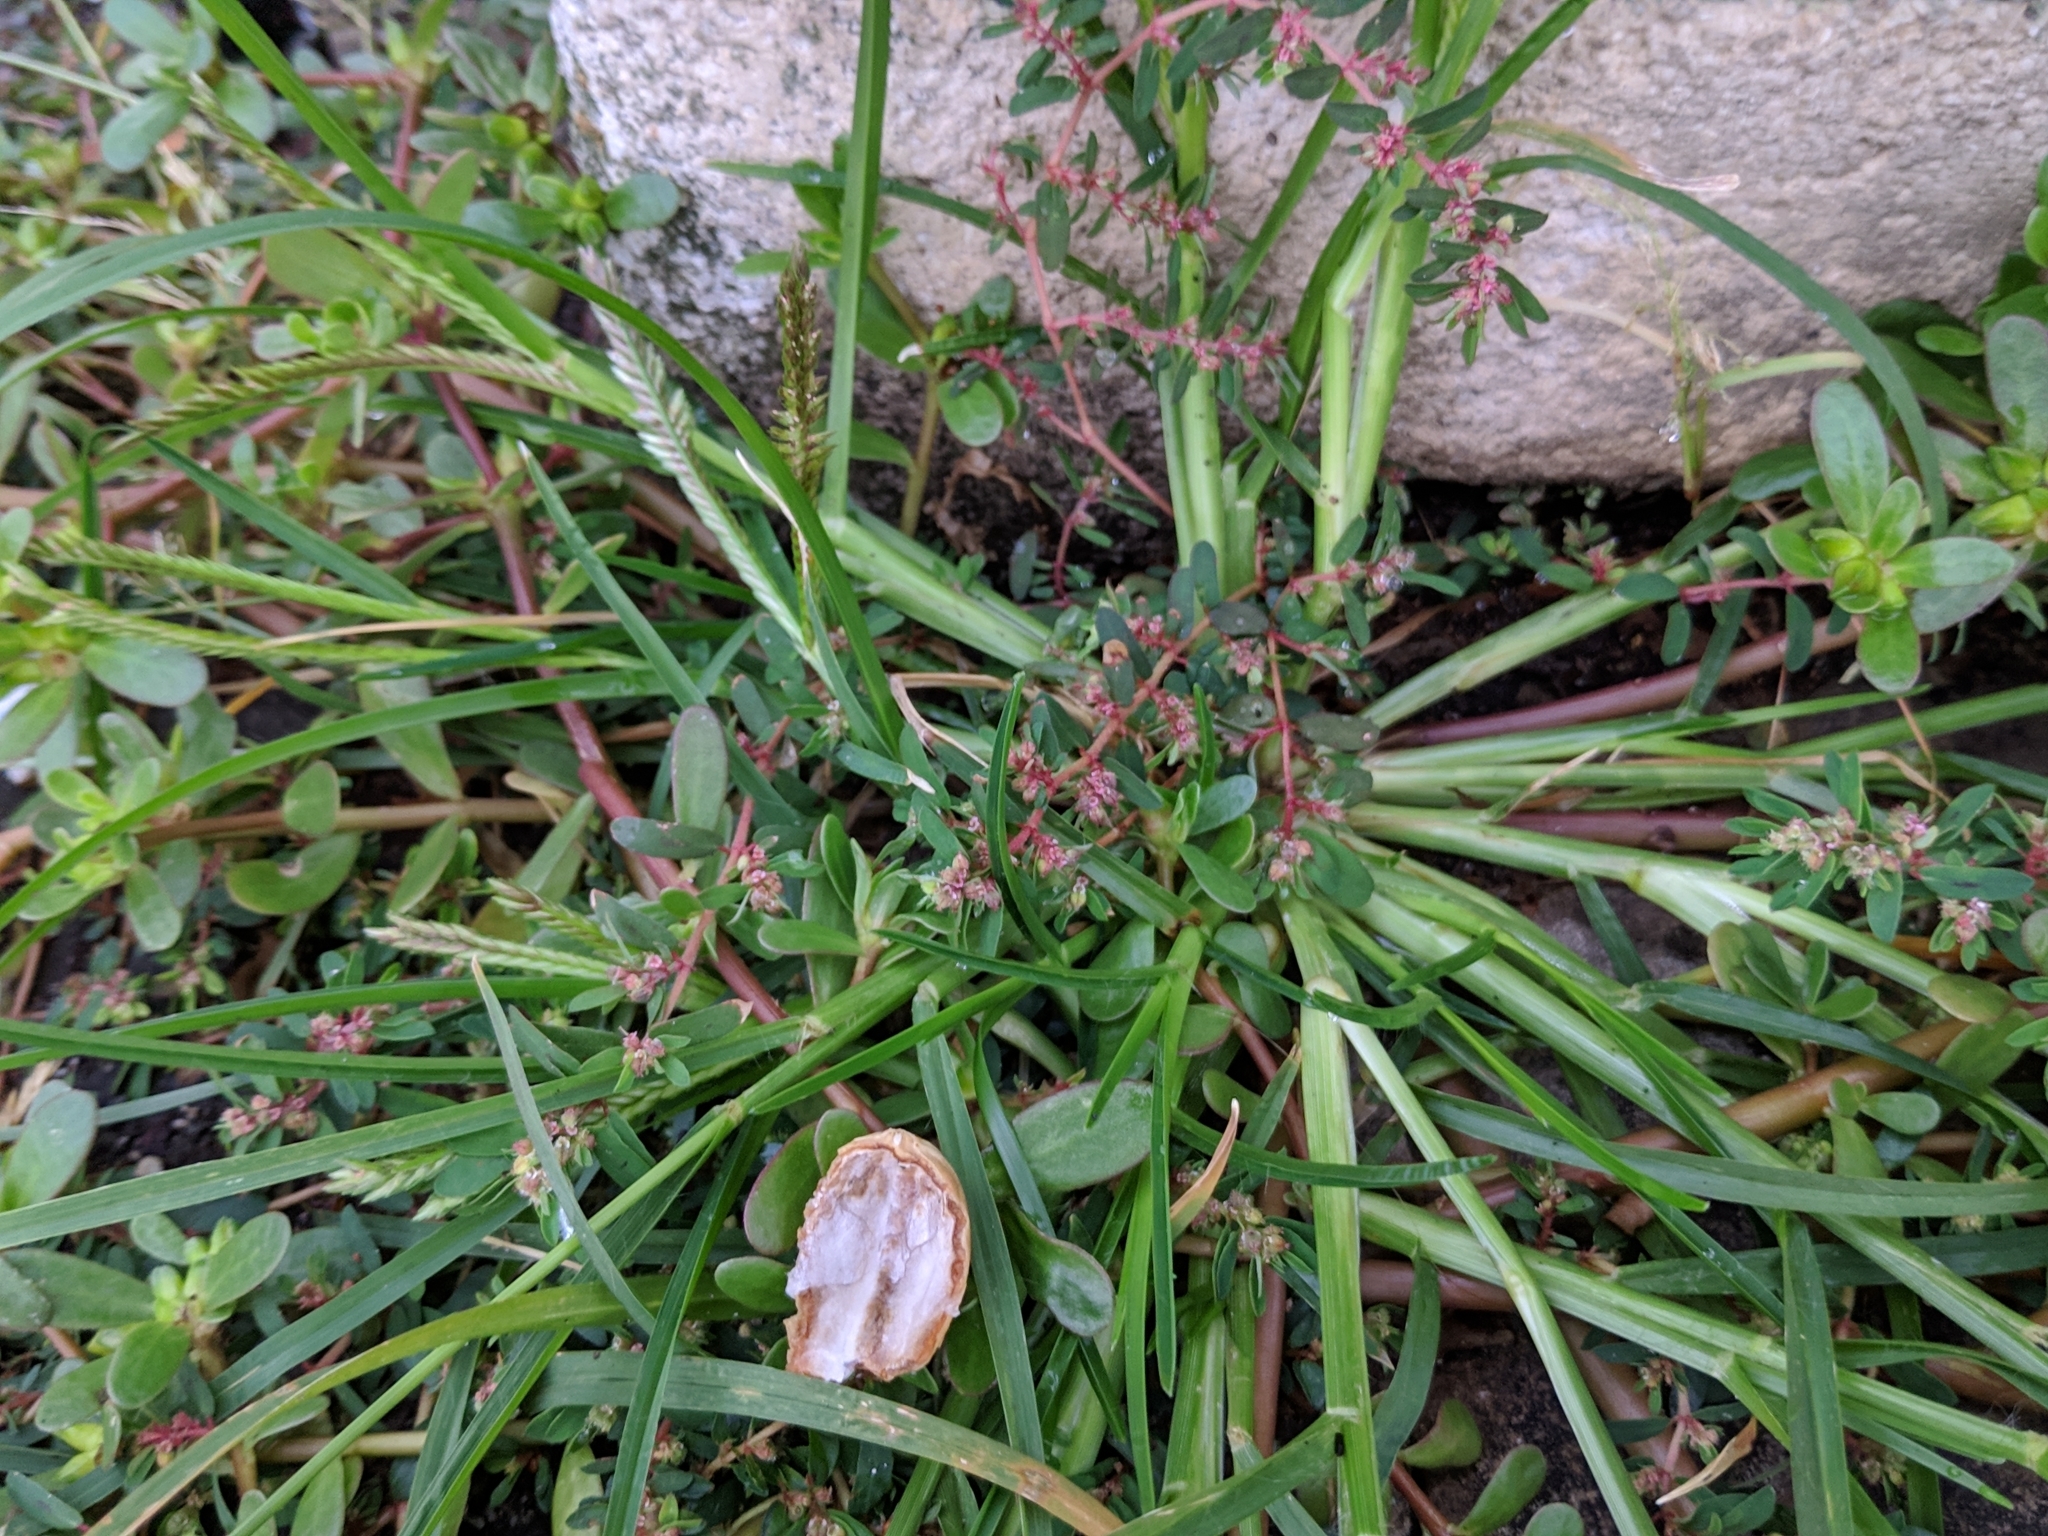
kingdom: Plantae
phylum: Tracheophyta
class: Liliopsida
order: Poales
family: Poaceae
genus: Eleusine
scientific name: Eleusine indica
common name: Yard-grass
